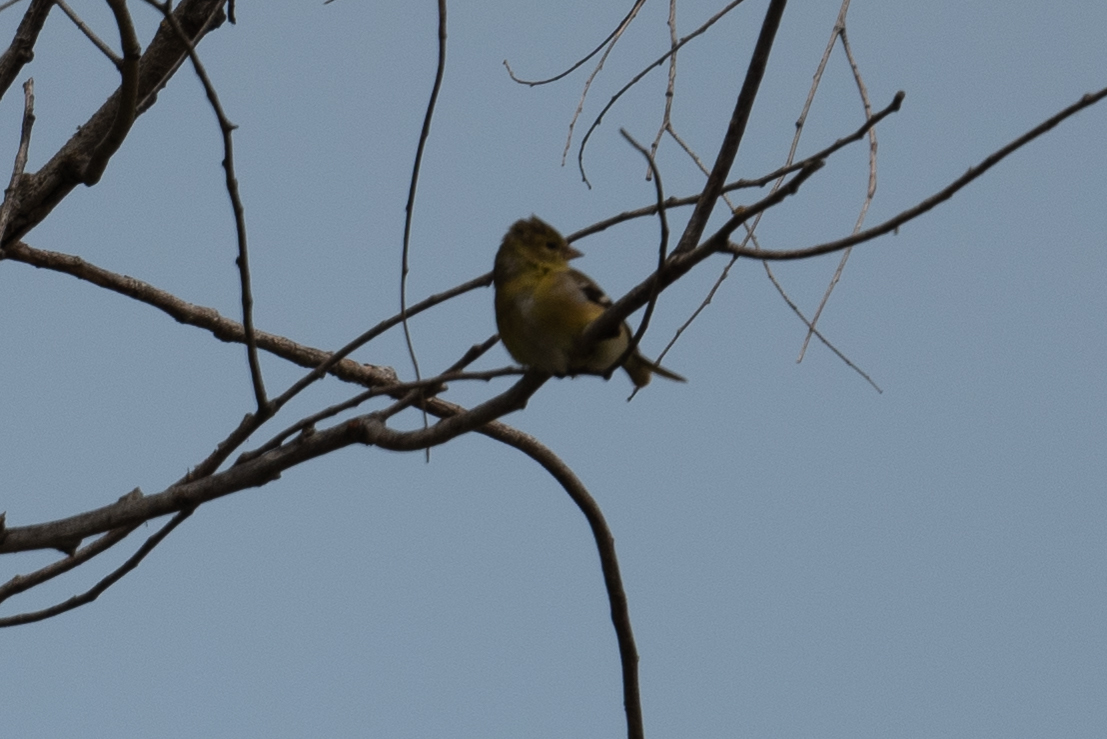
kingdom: Animalia
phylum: Chordata
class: Aves
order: Passeriformes
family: Fringillidae
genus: Spinus
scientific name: Spinus tristis
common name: American goldfinch
